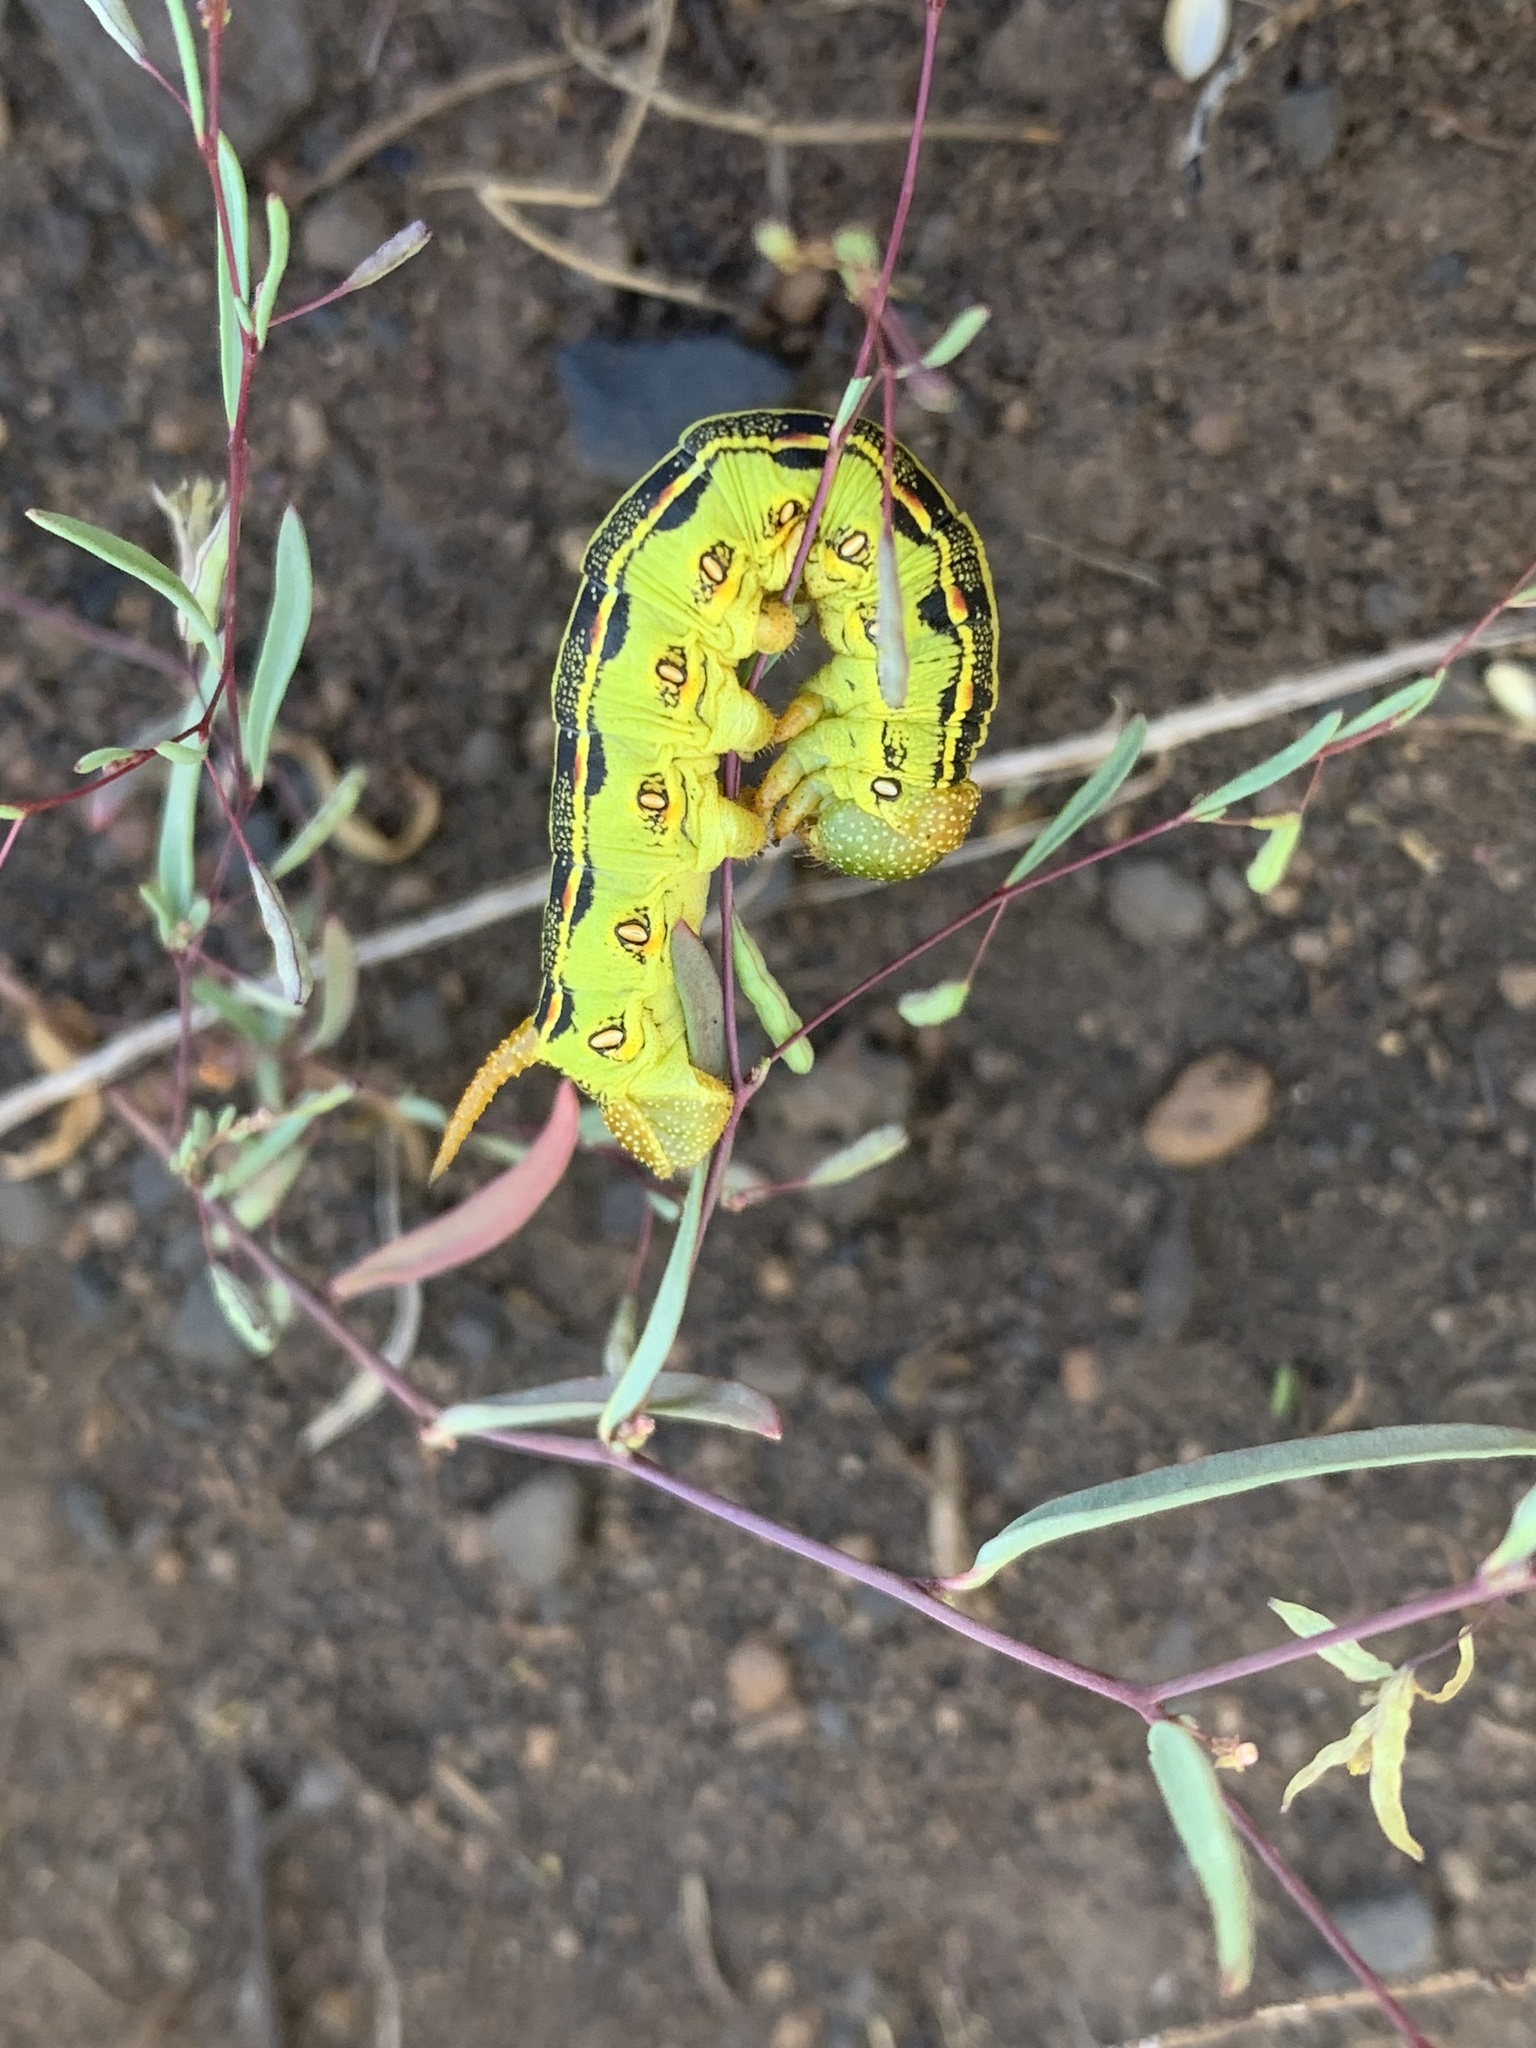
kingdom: Animalia
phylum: Arthropoda
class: Insecta
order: Lepidoptera
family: Sphingidae
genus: Hyles
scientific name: Hyles lineata
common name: White-lined sphinx
